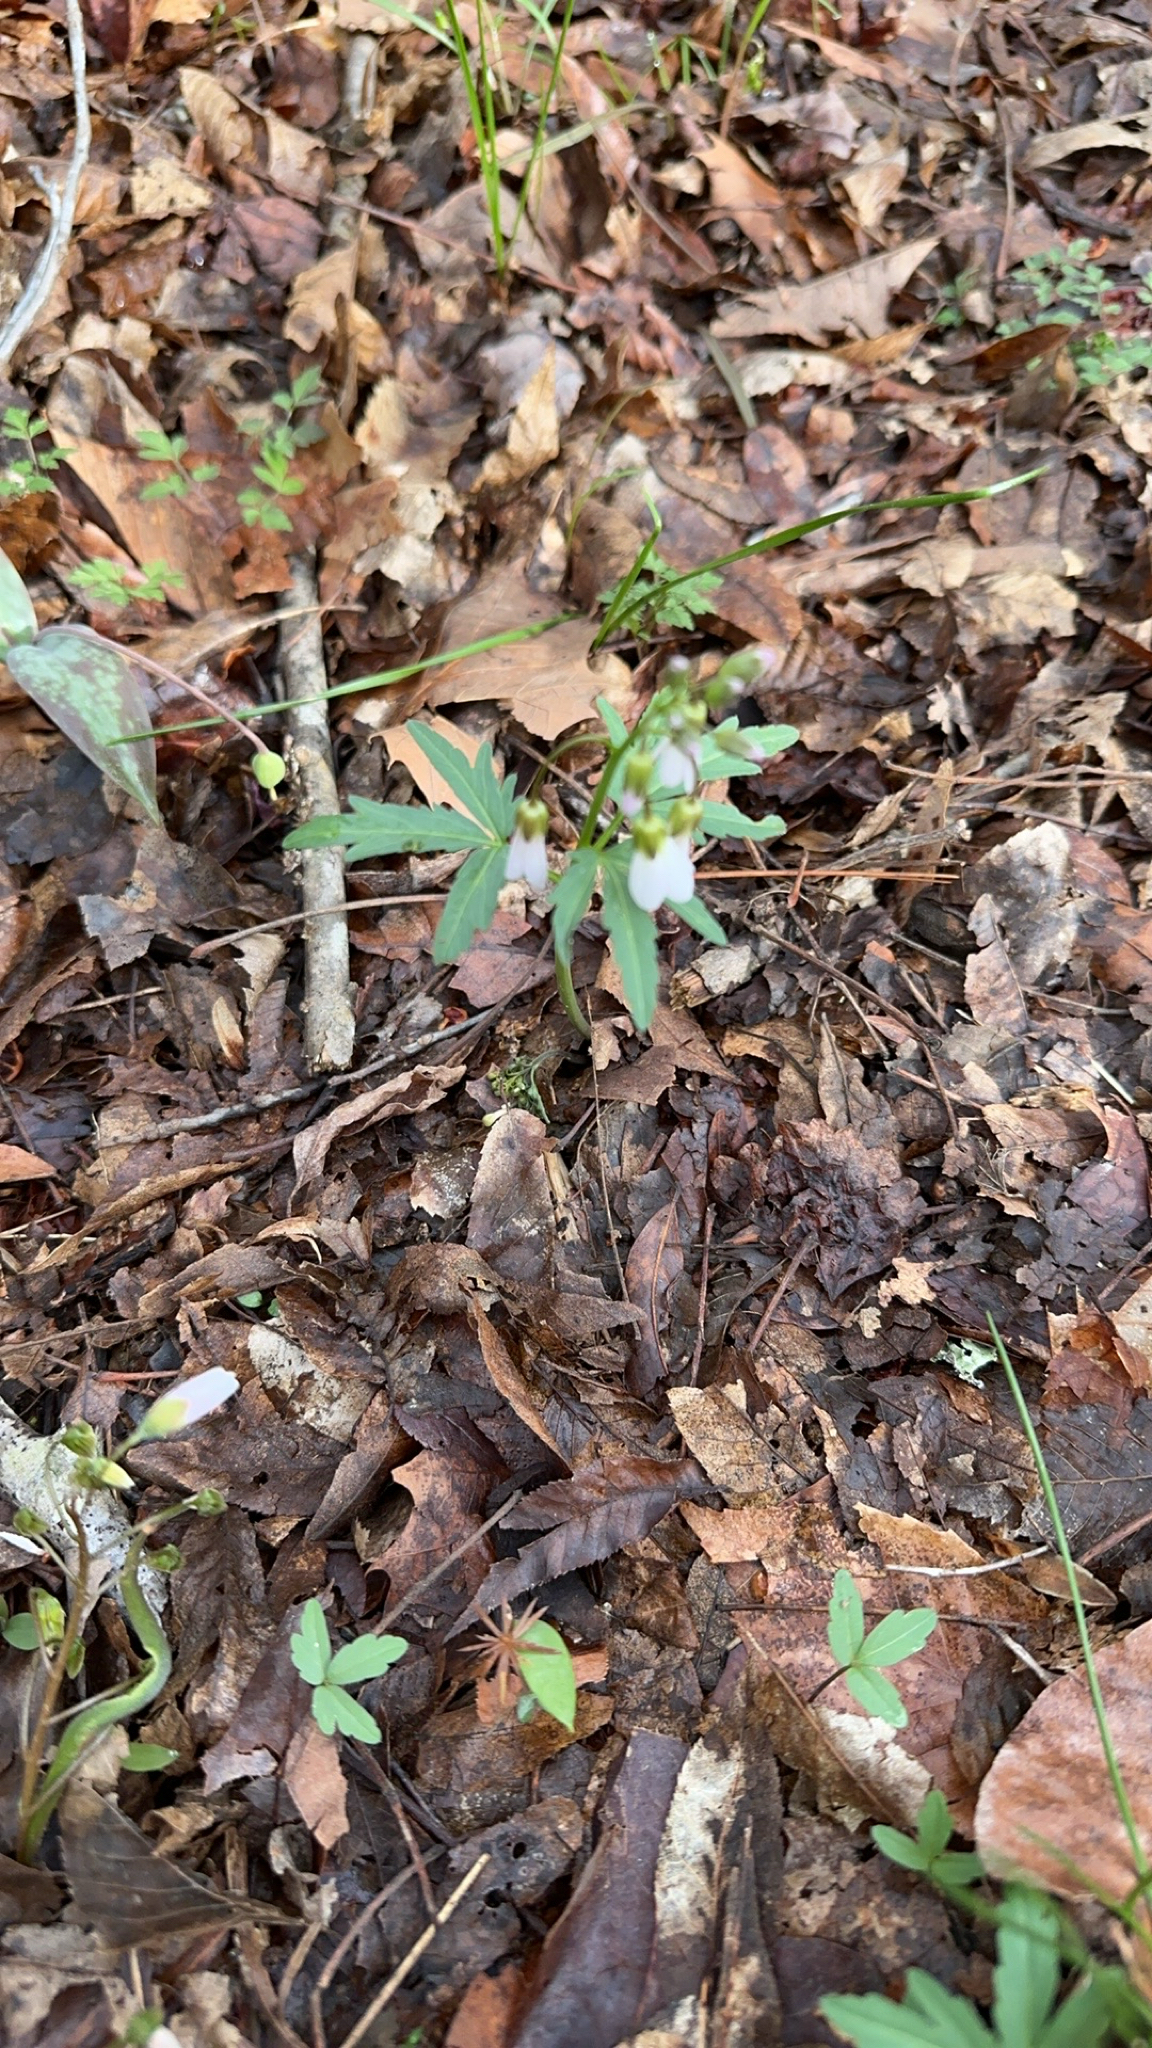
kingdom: Plantae
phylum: Tracheophyta
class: Magnoliopsida
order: Brassicales
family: Brassicaceae
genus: Cardamine
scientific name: Cardamine concatenata
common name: Cut-leaf toothcup
